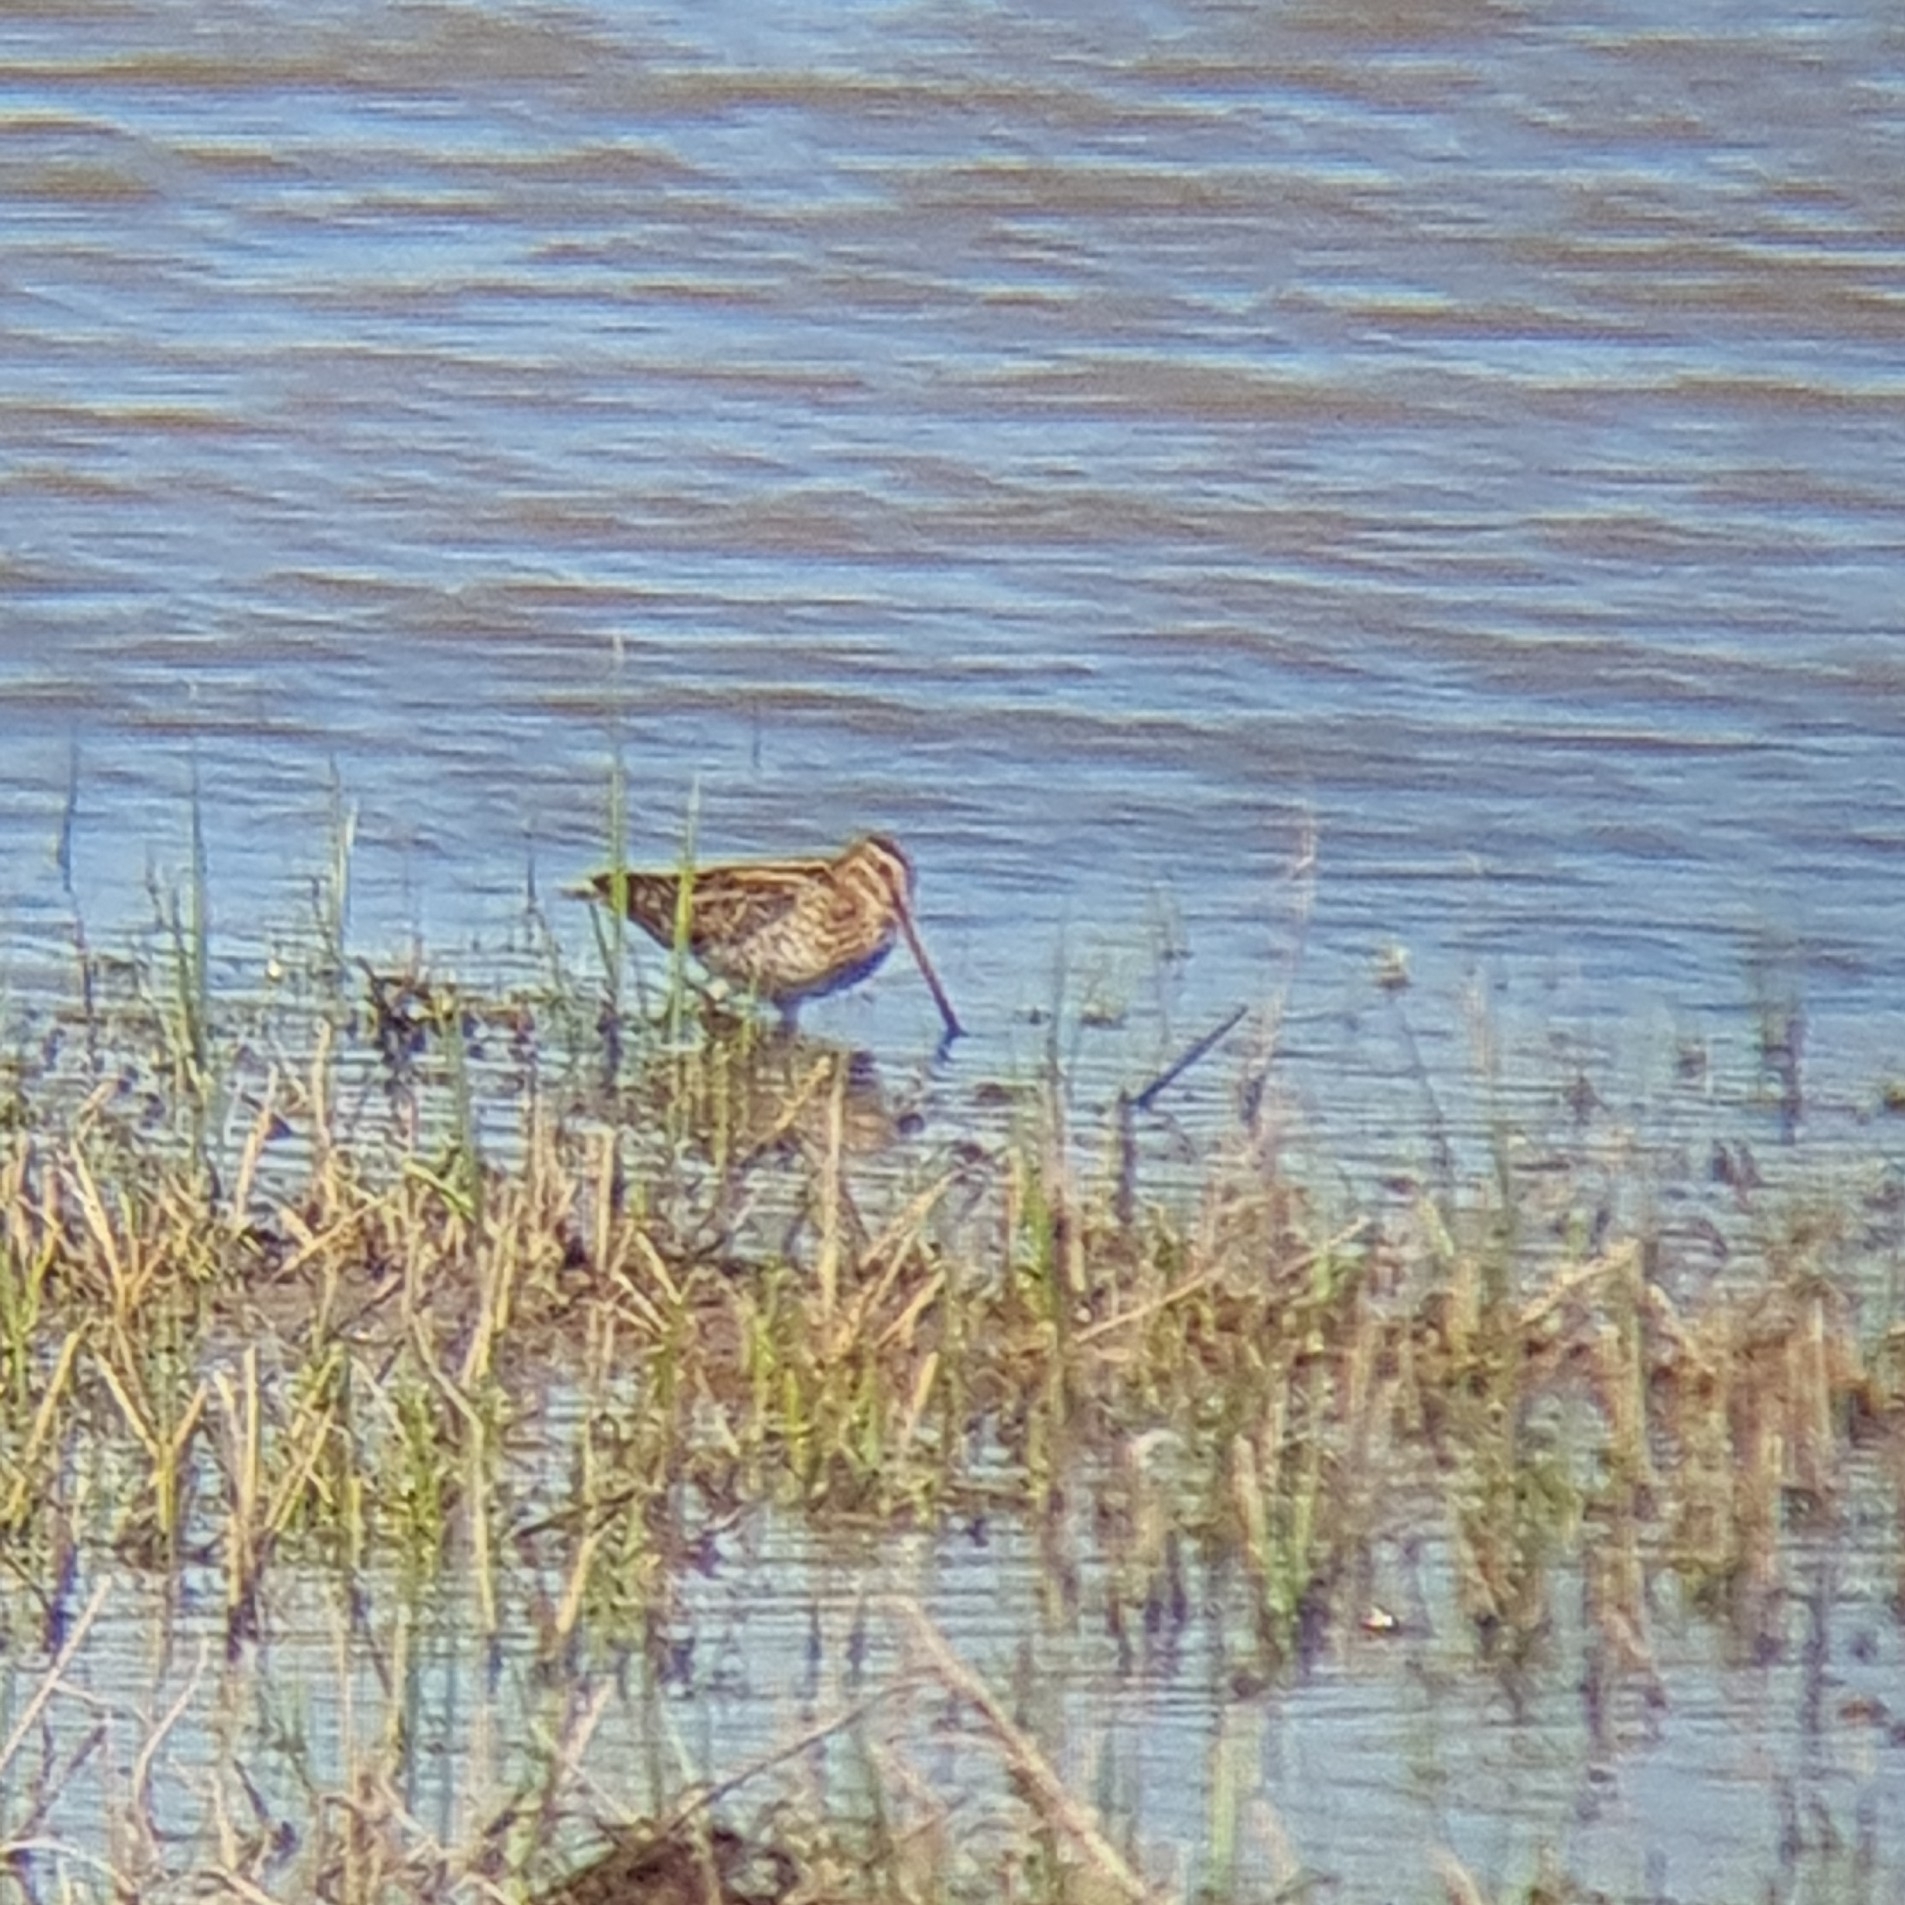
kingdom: Animalia
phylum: Chordata
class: Aves
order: Charadriiformes
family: Scolopacidae
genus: Gallinago
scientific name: Gallinago gallinago
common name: Common snipe
